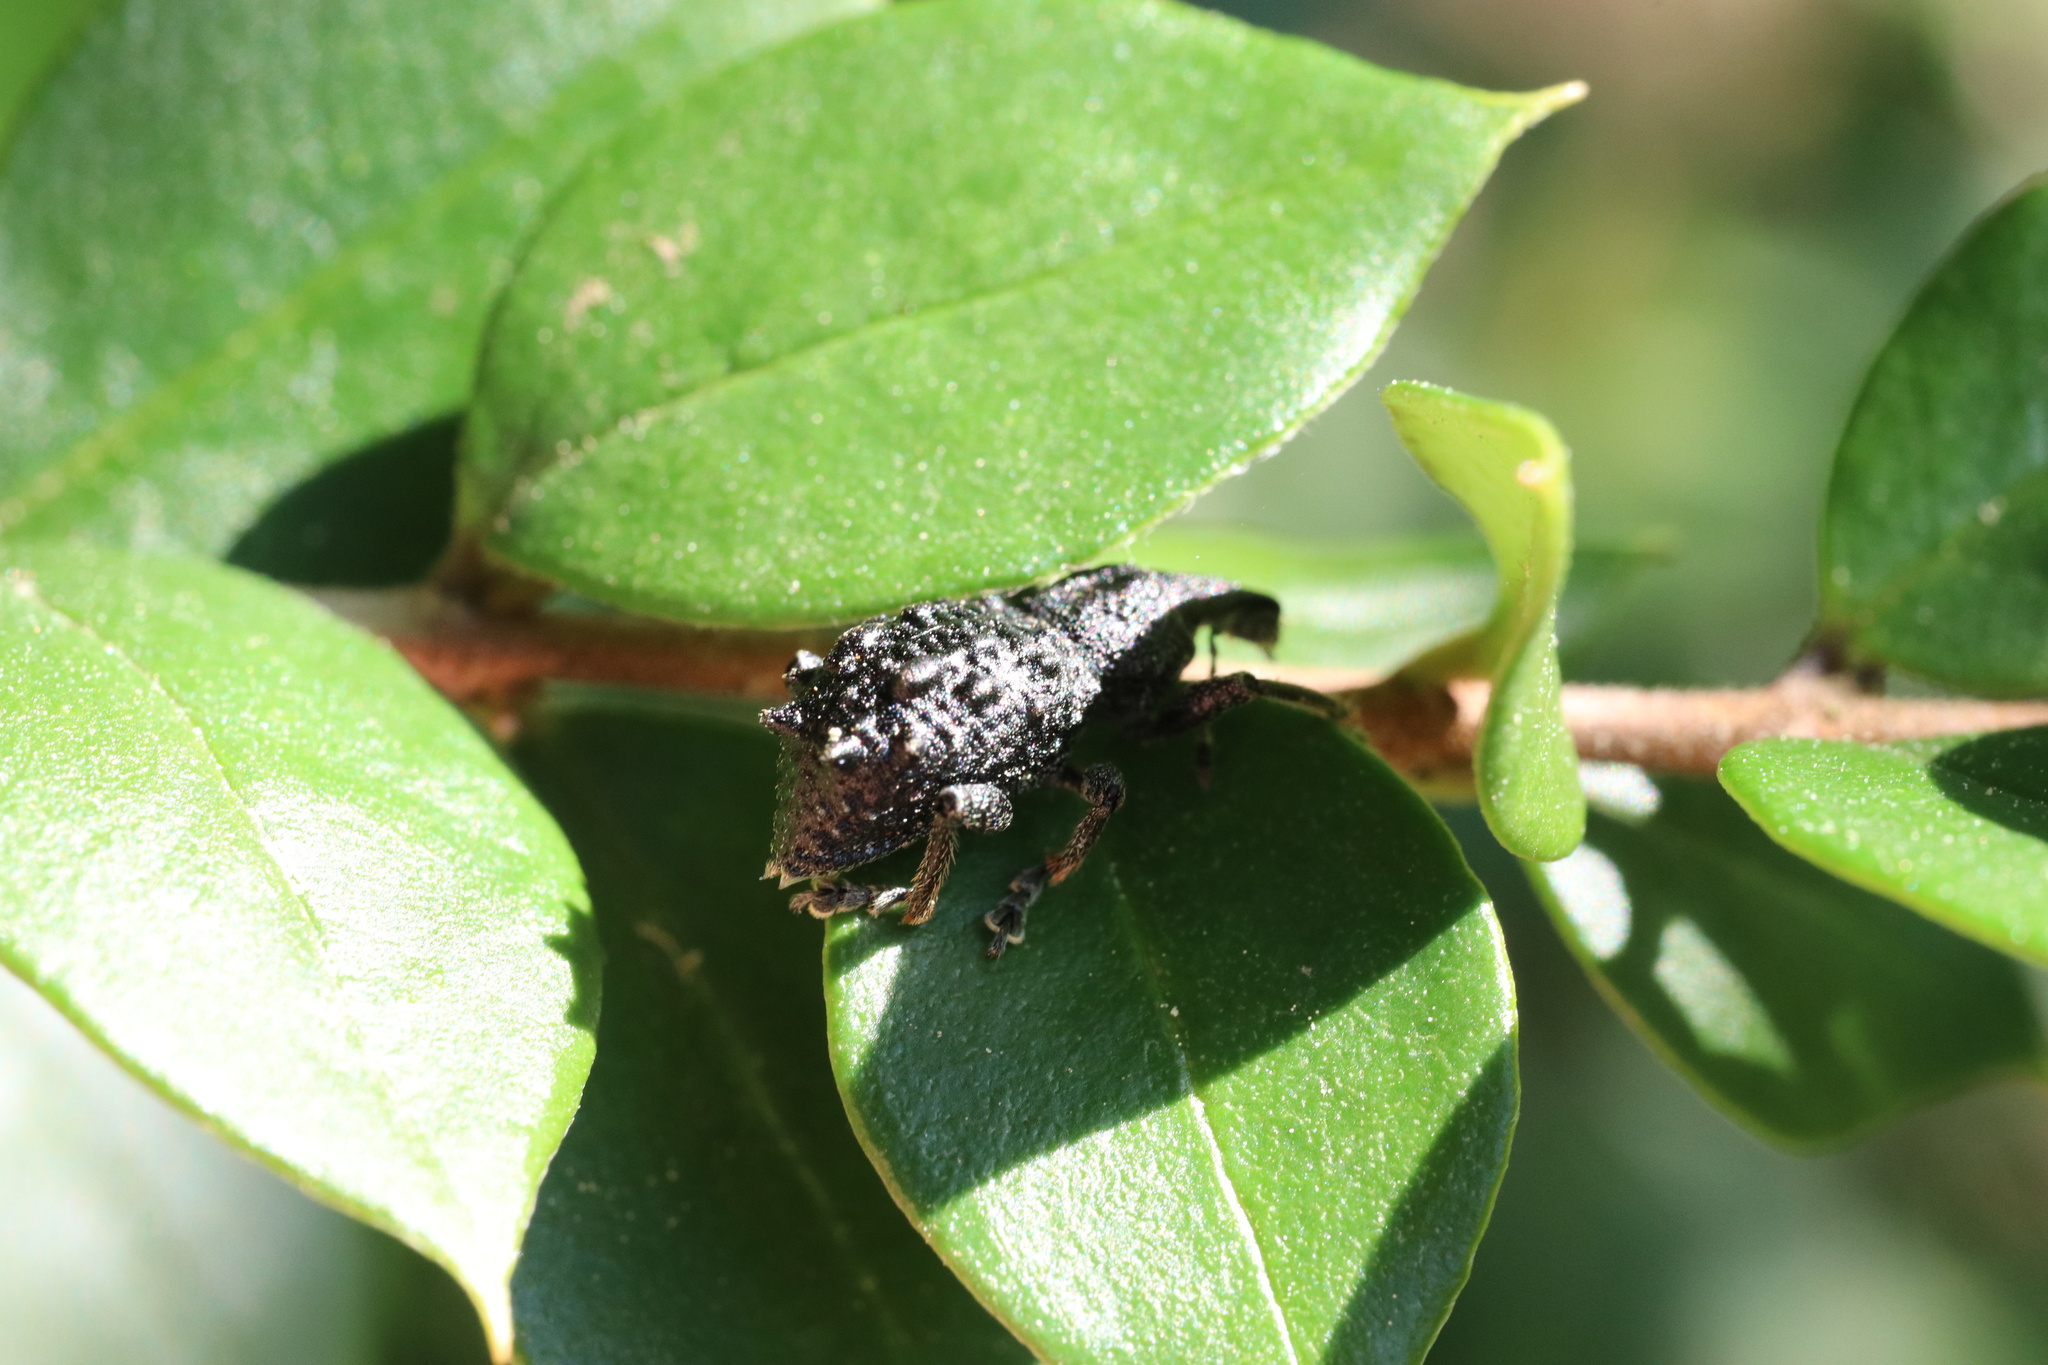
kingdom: Animalia
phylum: Arthropoda
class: Insecta
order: Coleoptera
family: Curculionidae
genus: Megalometis
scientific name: Megalometis spiniferus
